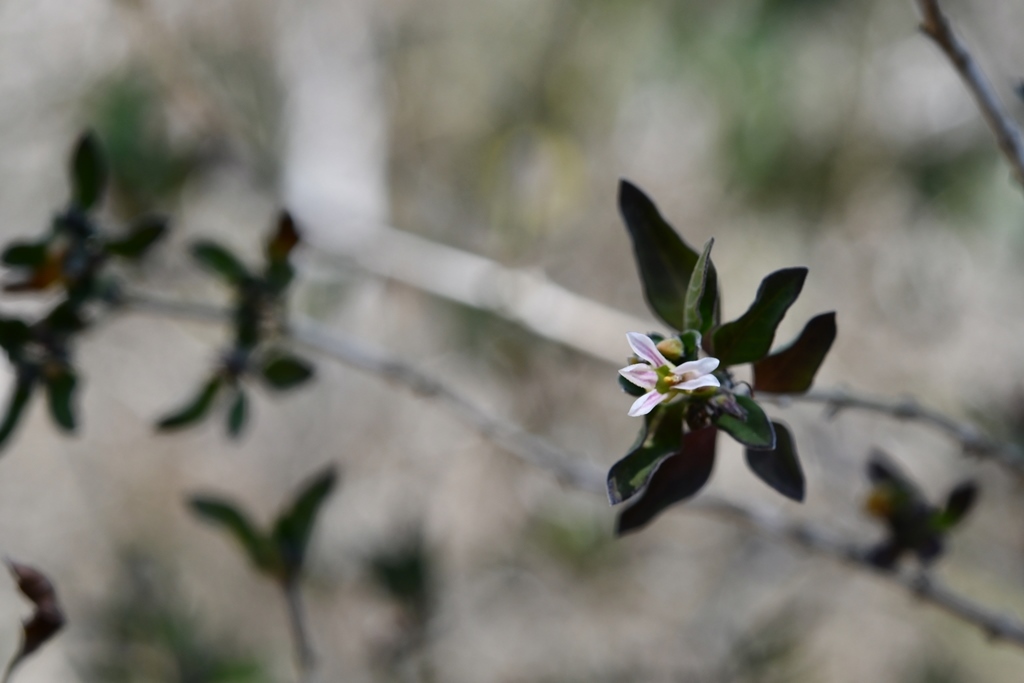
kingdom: Plantae
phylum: Tracheophyta
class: Magnoliopsida
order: Lamiales
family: Acanthaceae
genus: Holographis
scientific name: Holographis parayana
